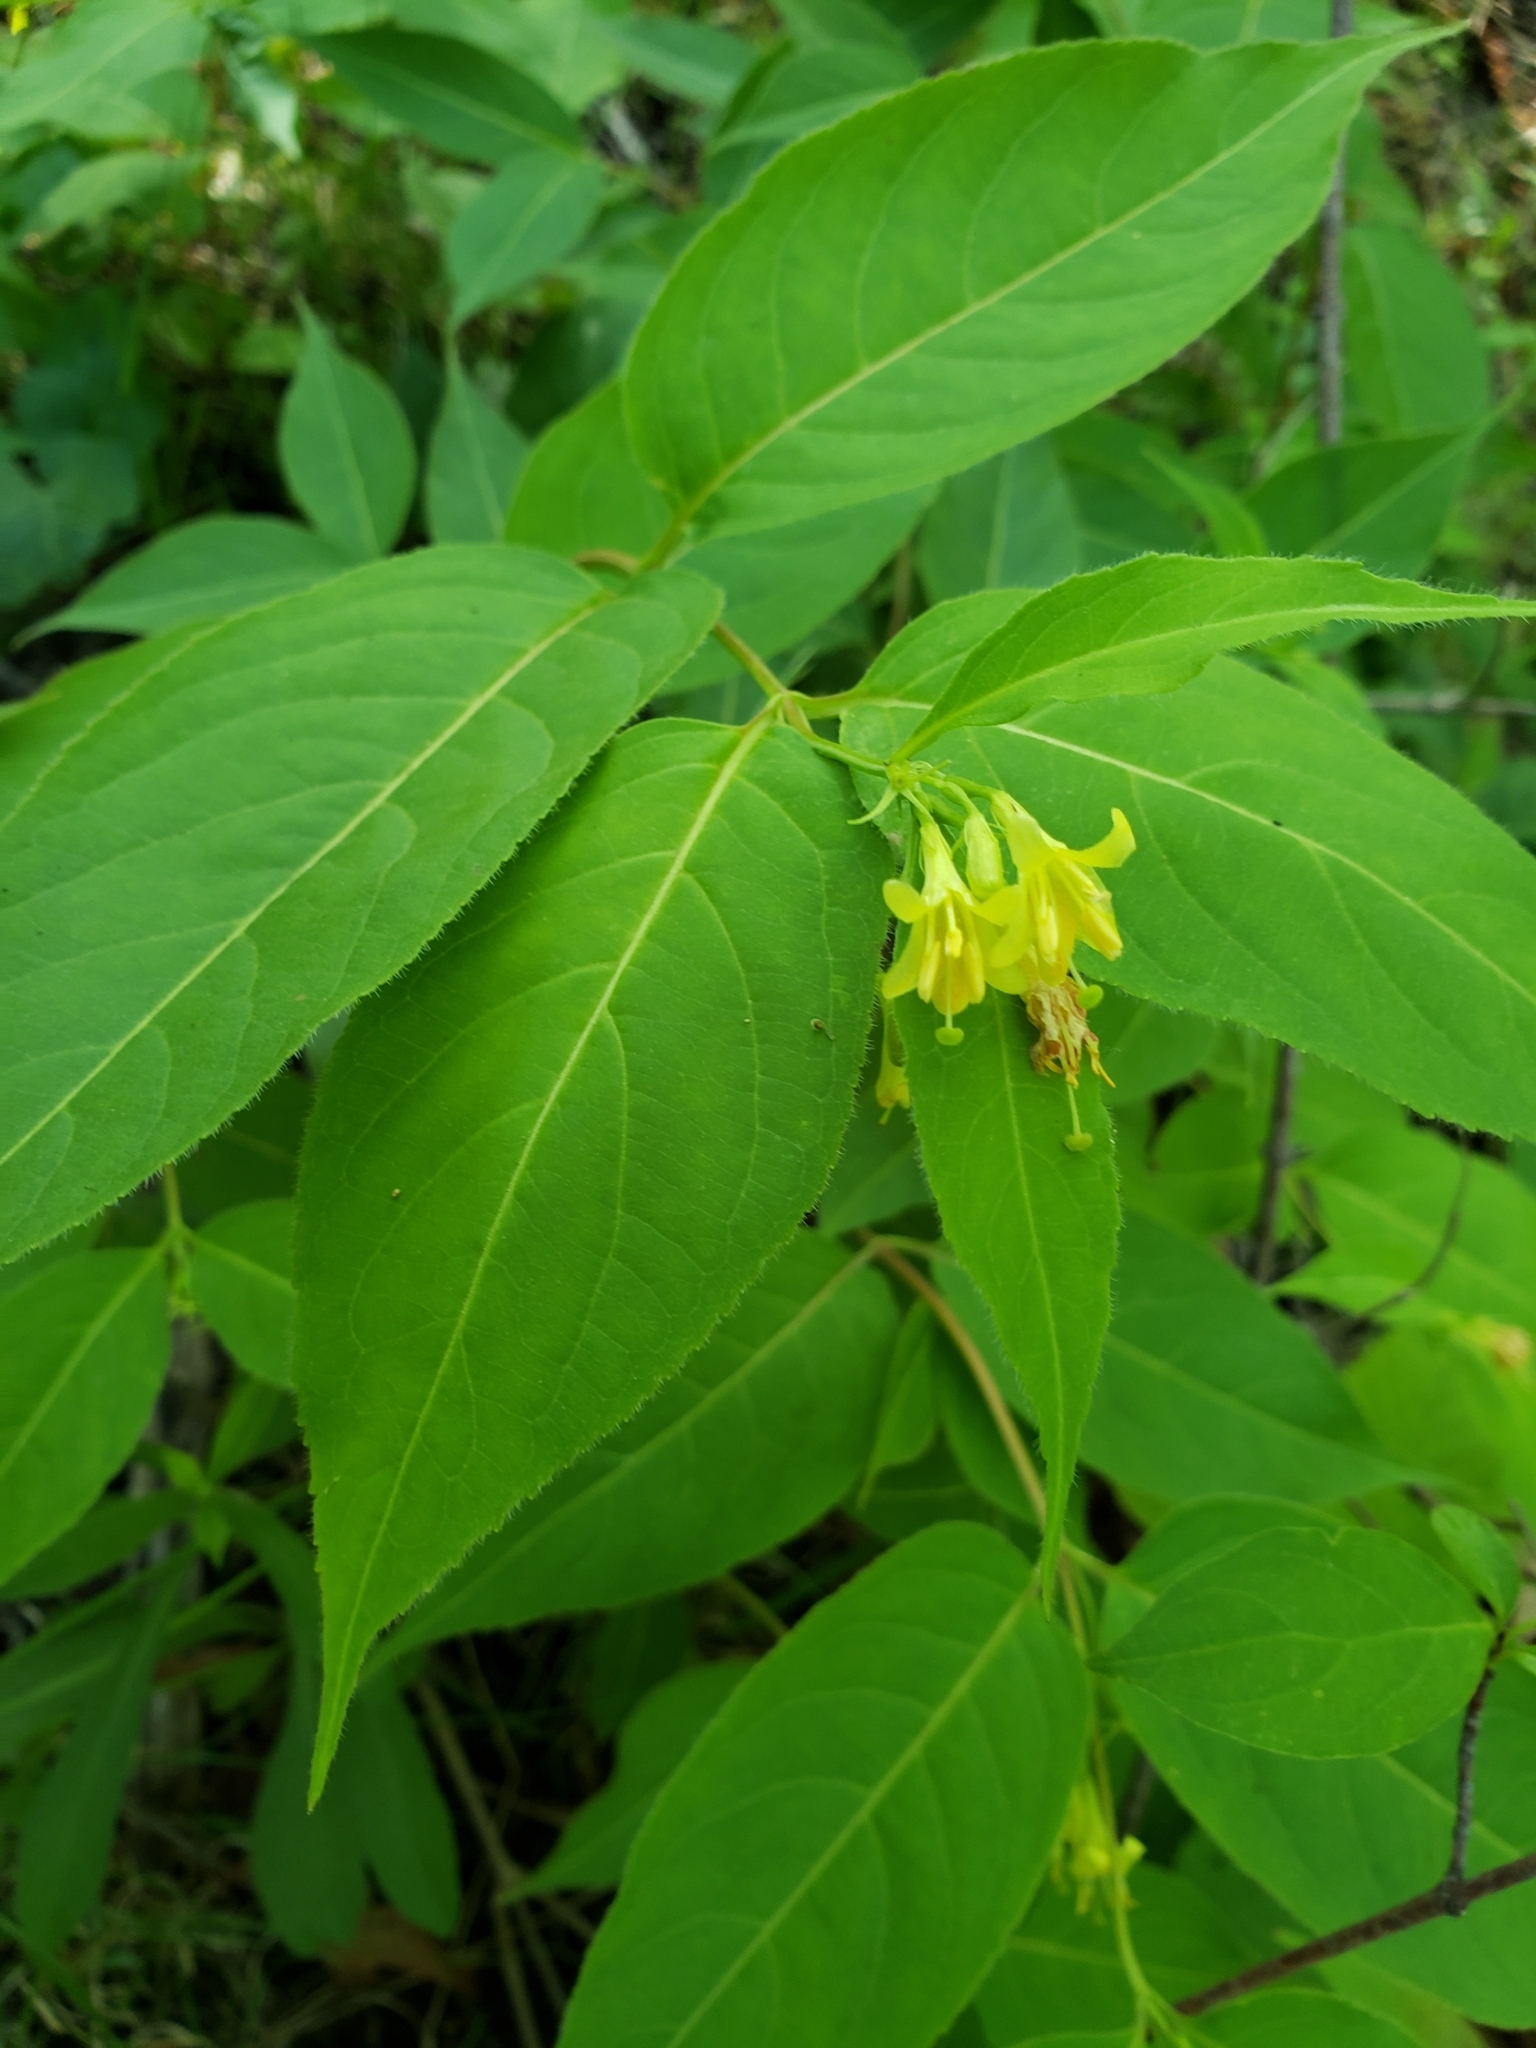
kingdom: Plantae
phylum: Tracheophyta
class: Magnoliopsida
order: Dipsacales
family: Caprifoliaceae
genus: Diervilla
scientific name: Diervilla lonicera
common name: Bush-honeysuckle
